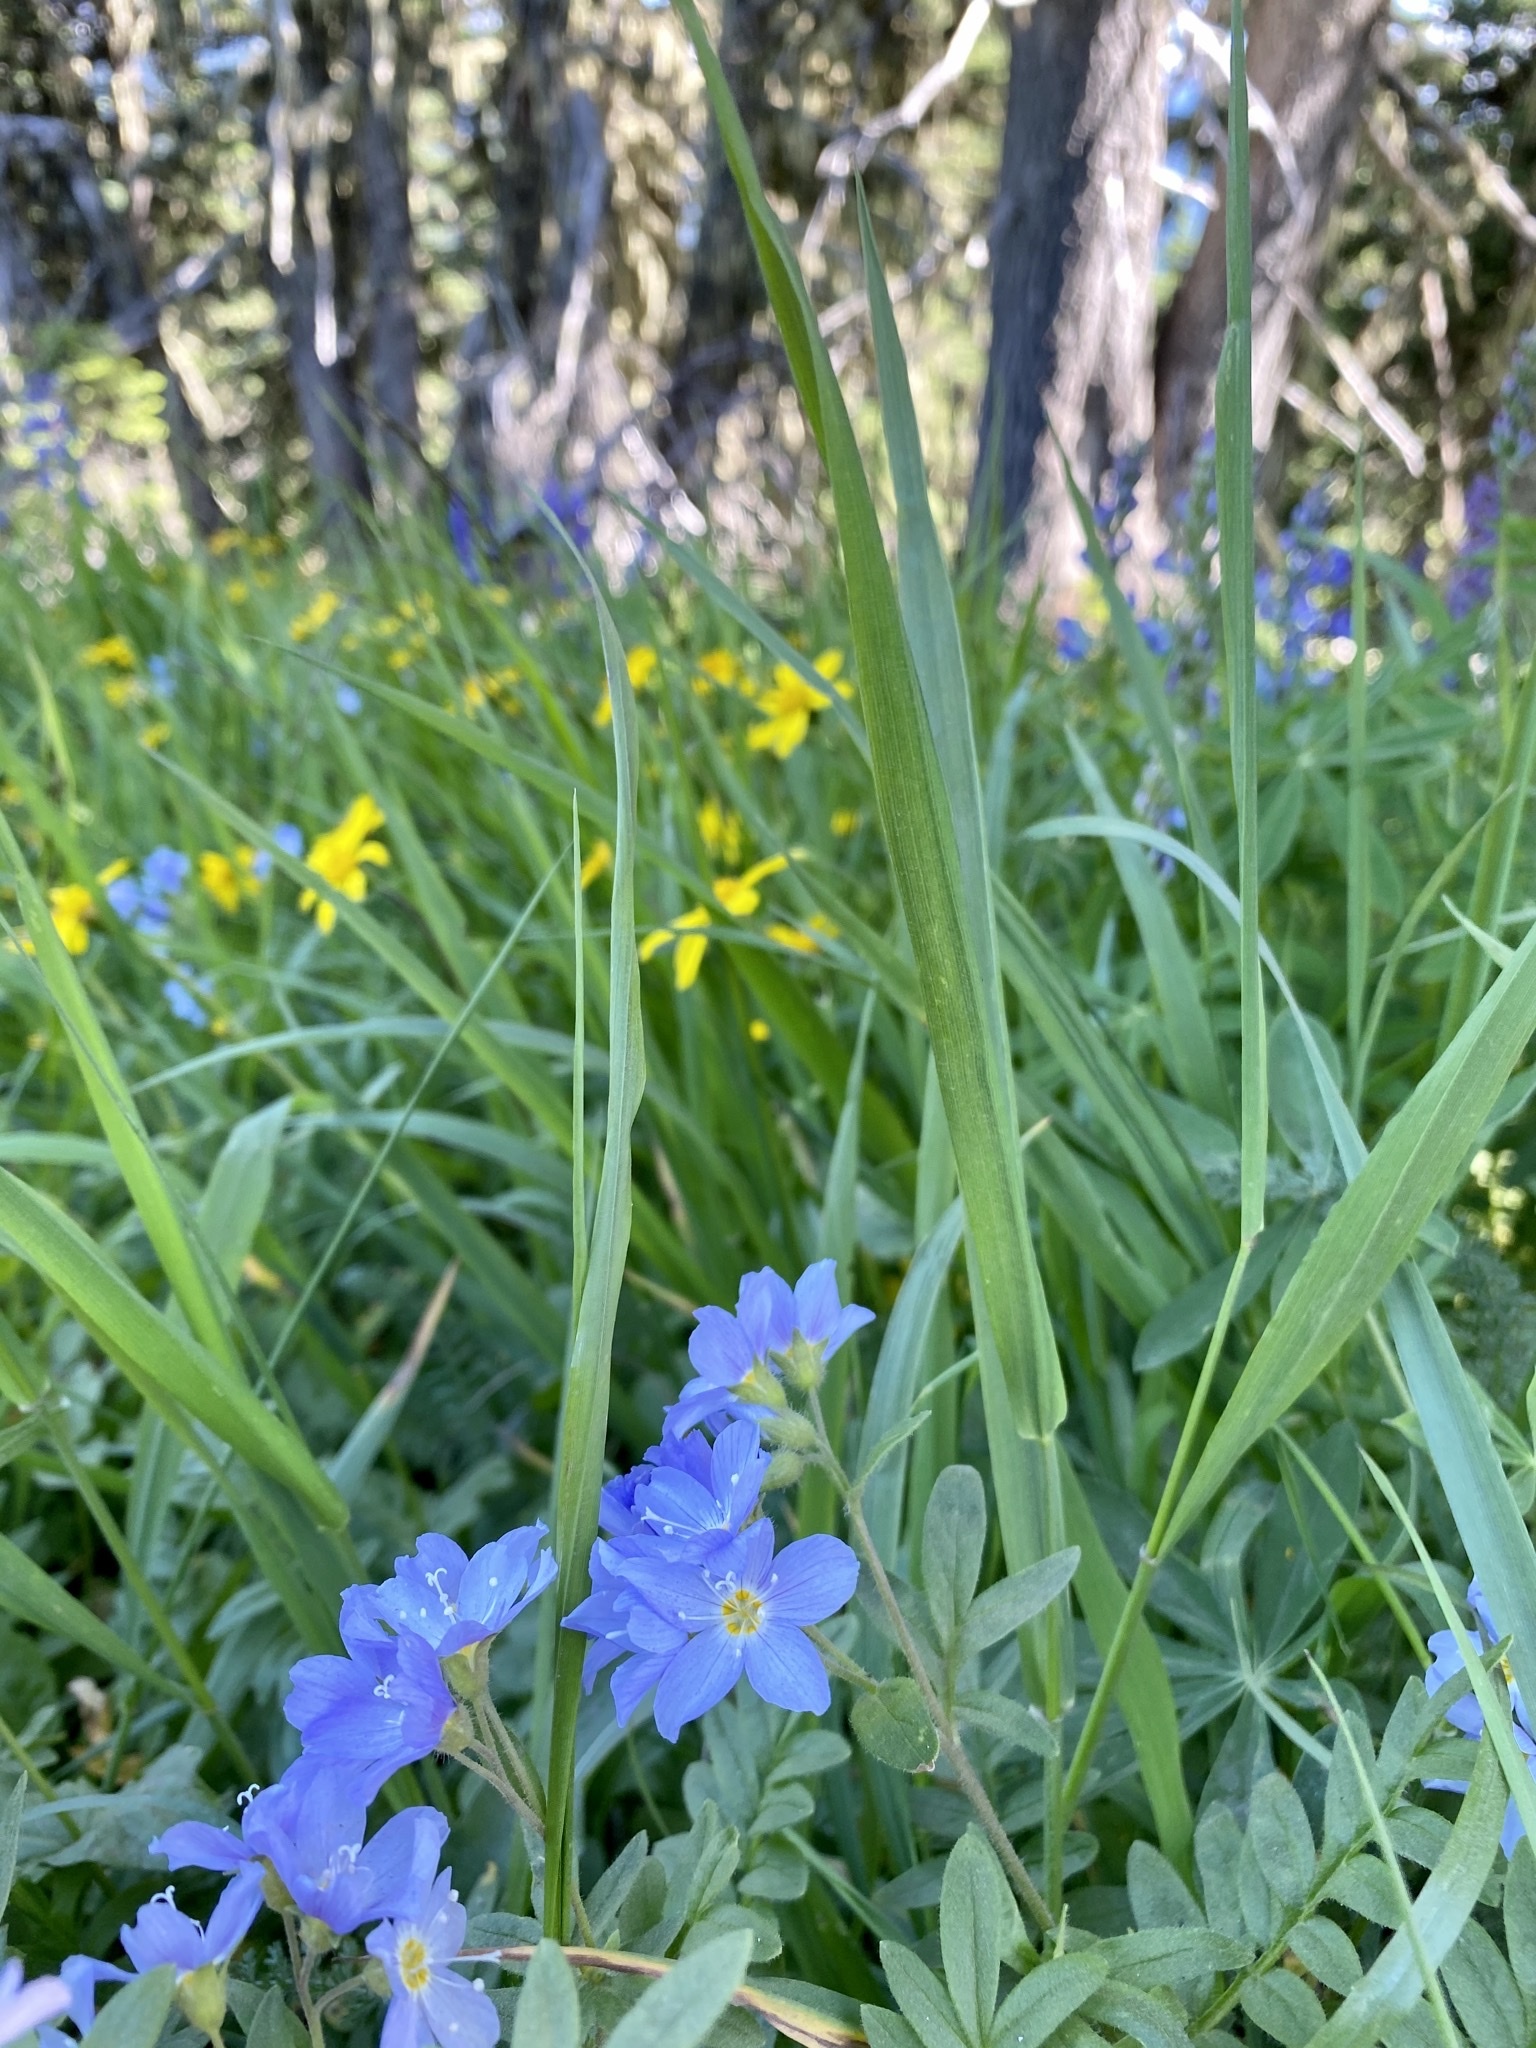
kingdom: Plantae
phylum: Tracheophyta
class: Magnoliopsida
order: Ericales
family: Polemoniaceae
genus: Polemonium
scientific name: Polemonium californicum
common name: California jacob's ladder
